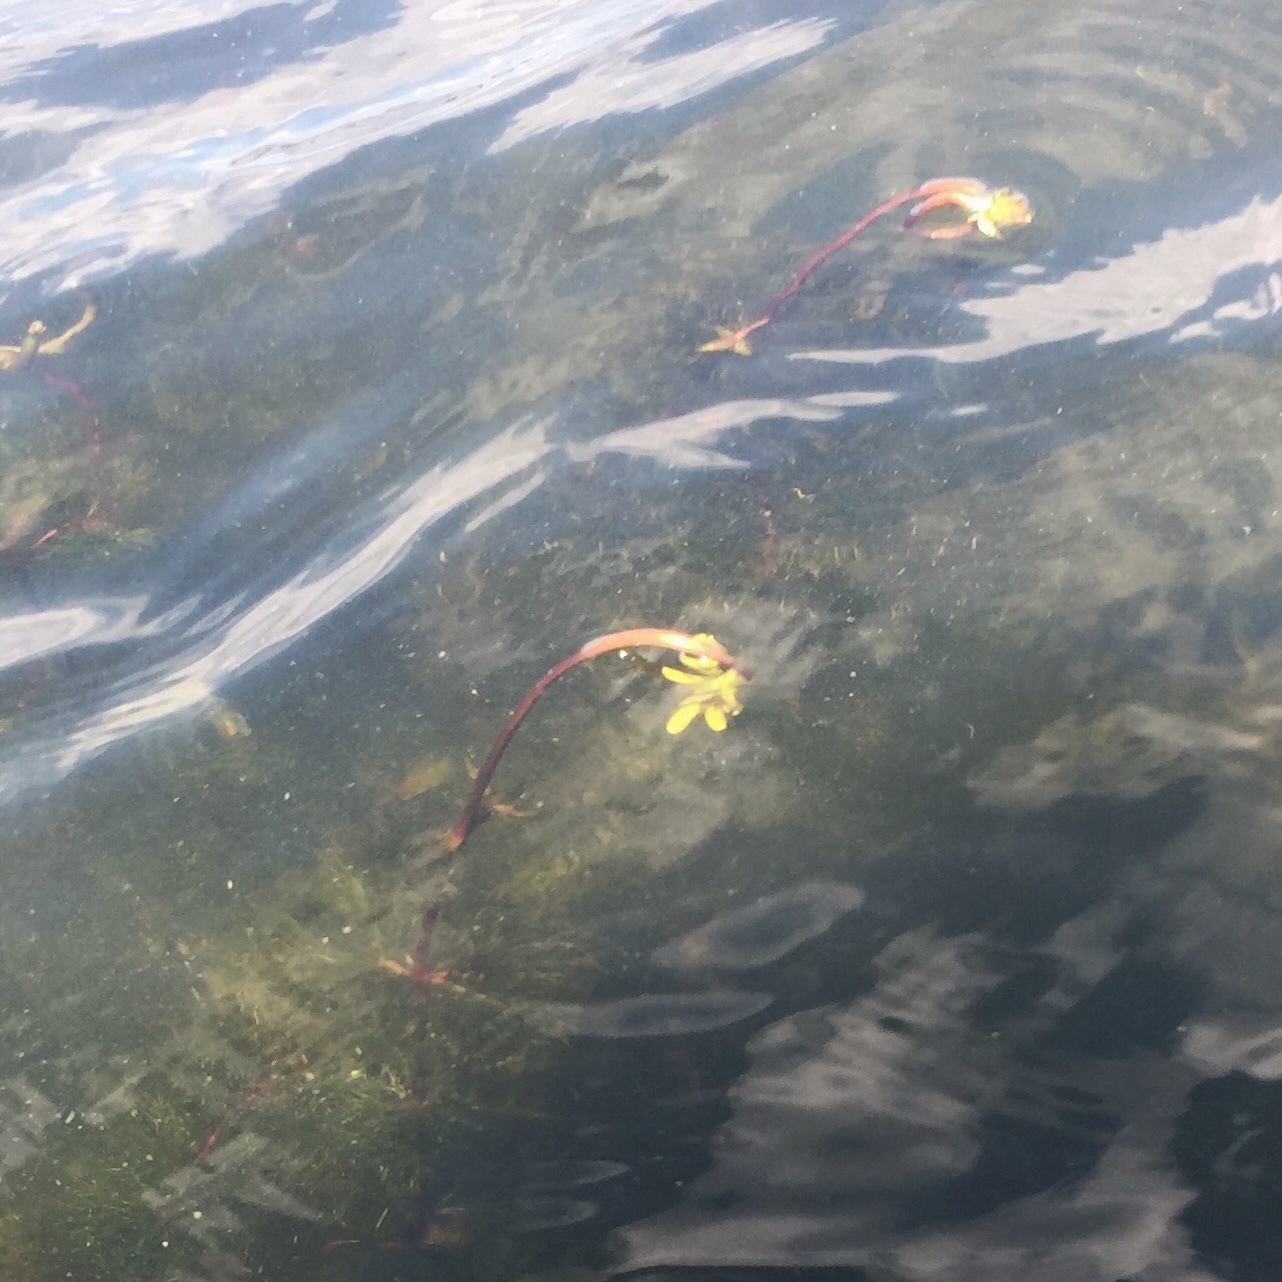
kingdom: Plantae
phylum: Tracheophyta
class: Magnoliopsida
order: Asterales
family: Asteraceae
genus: Bidens
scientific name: Bidens beckii
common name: Beck's beggarticks
